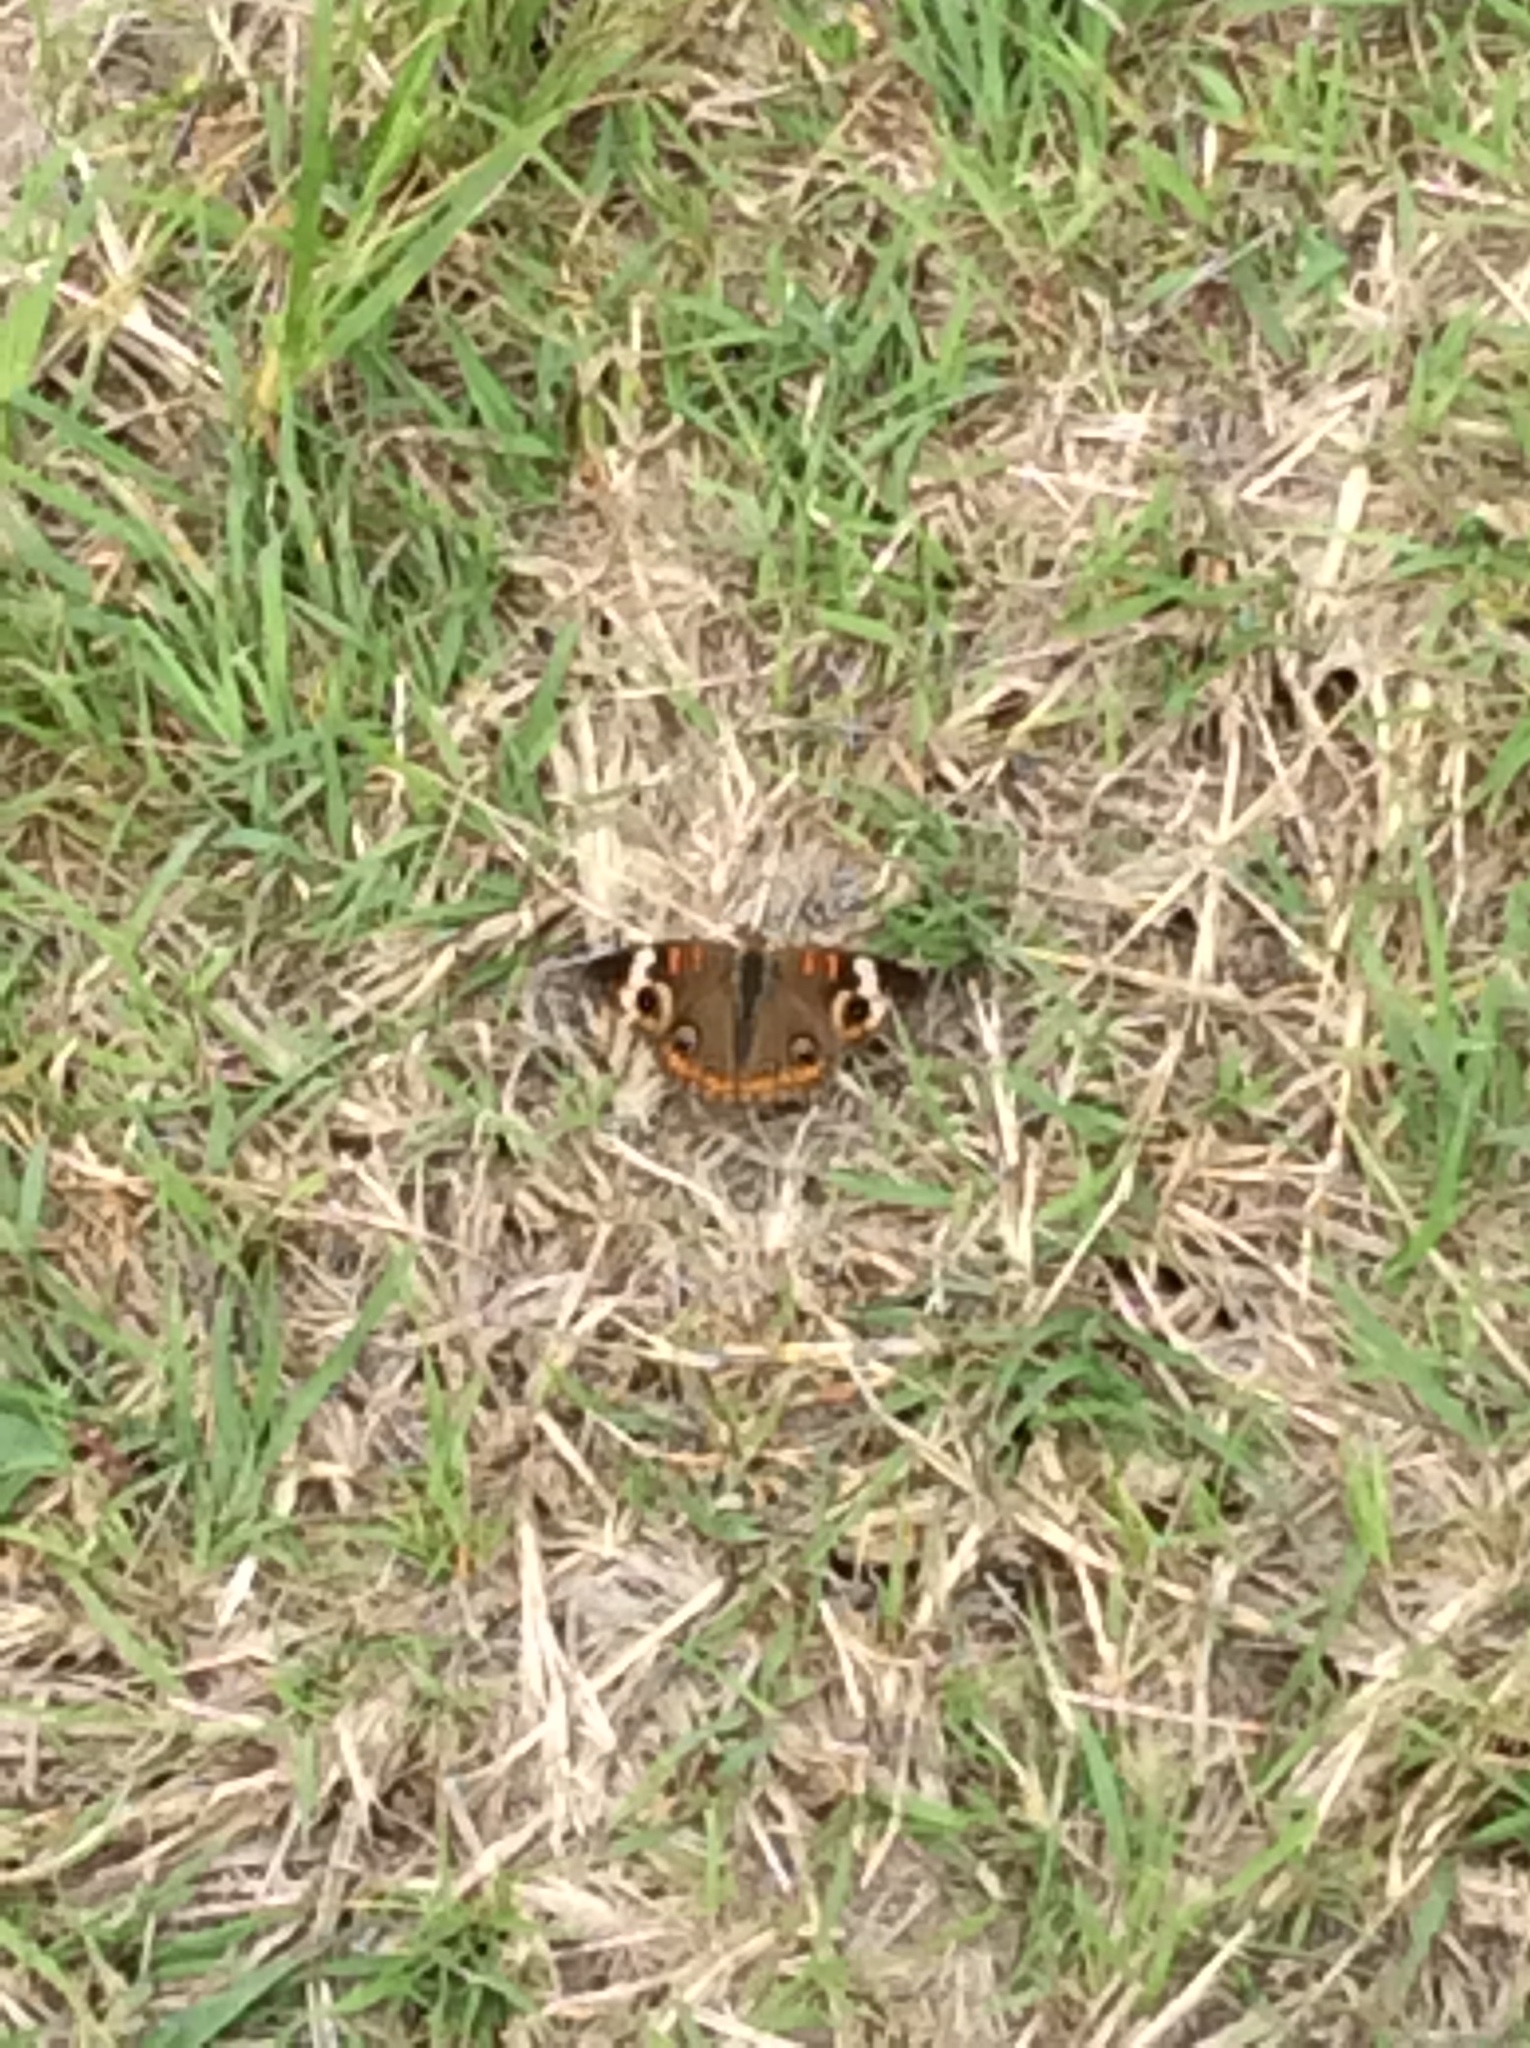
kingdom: Animalia
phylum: Arthropoda
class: Insecta
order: Lepidoptera
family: Nymphalidae
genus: Junonia
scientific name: Junonia coenia
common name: Common buckeye
